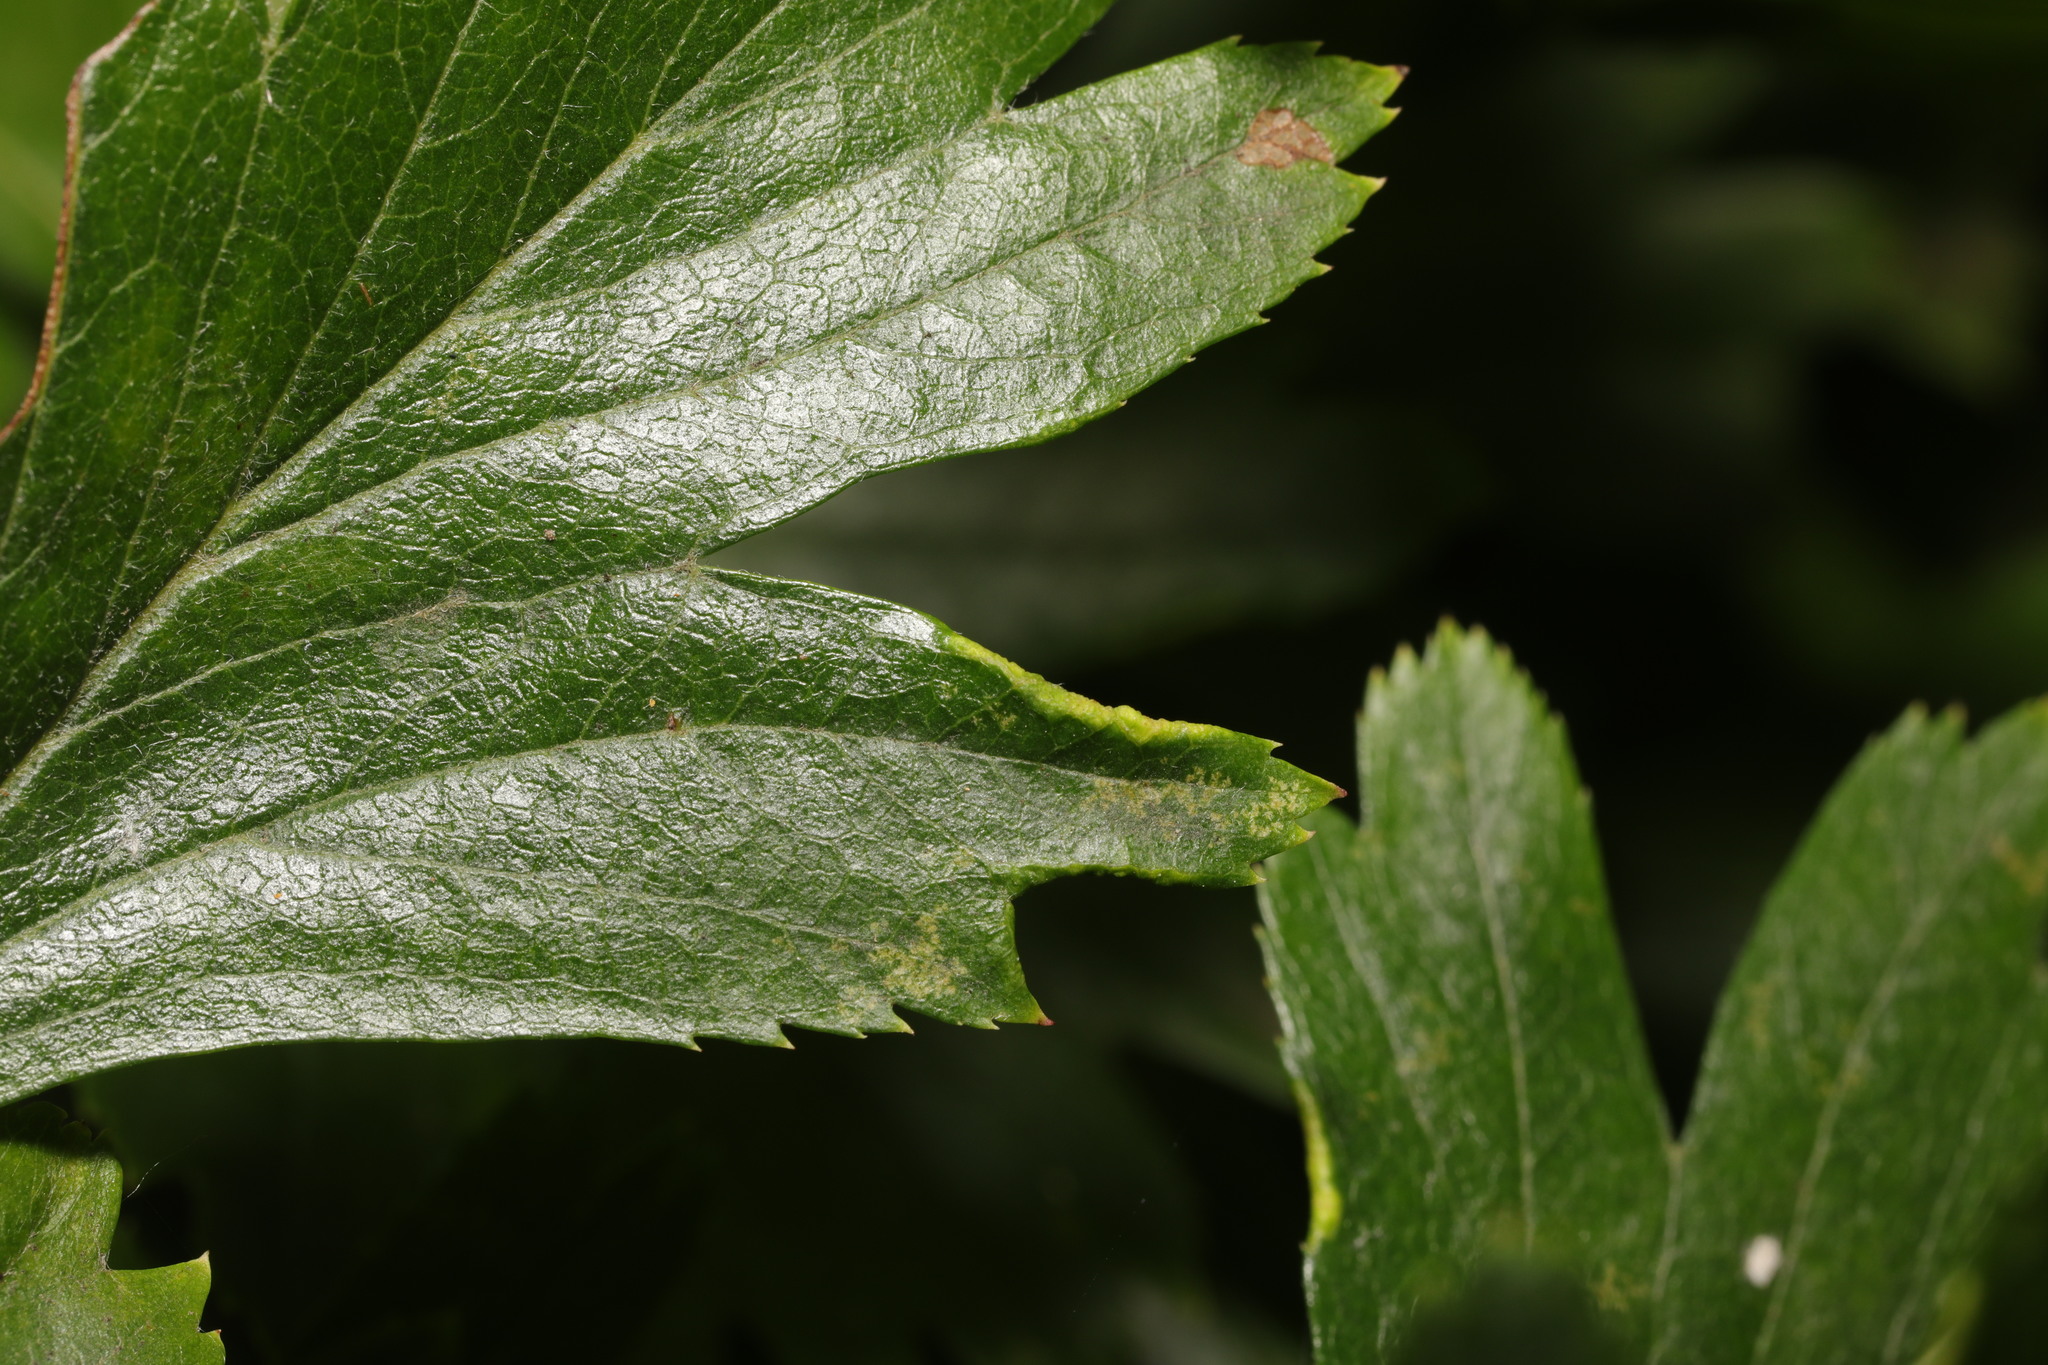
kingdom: Animalia
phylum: Arthropoda
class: Arachnida
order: Trombidiformes
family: Eriophyidae
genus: Phyllocoptes
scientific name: Phyllocoptes goniothorax
